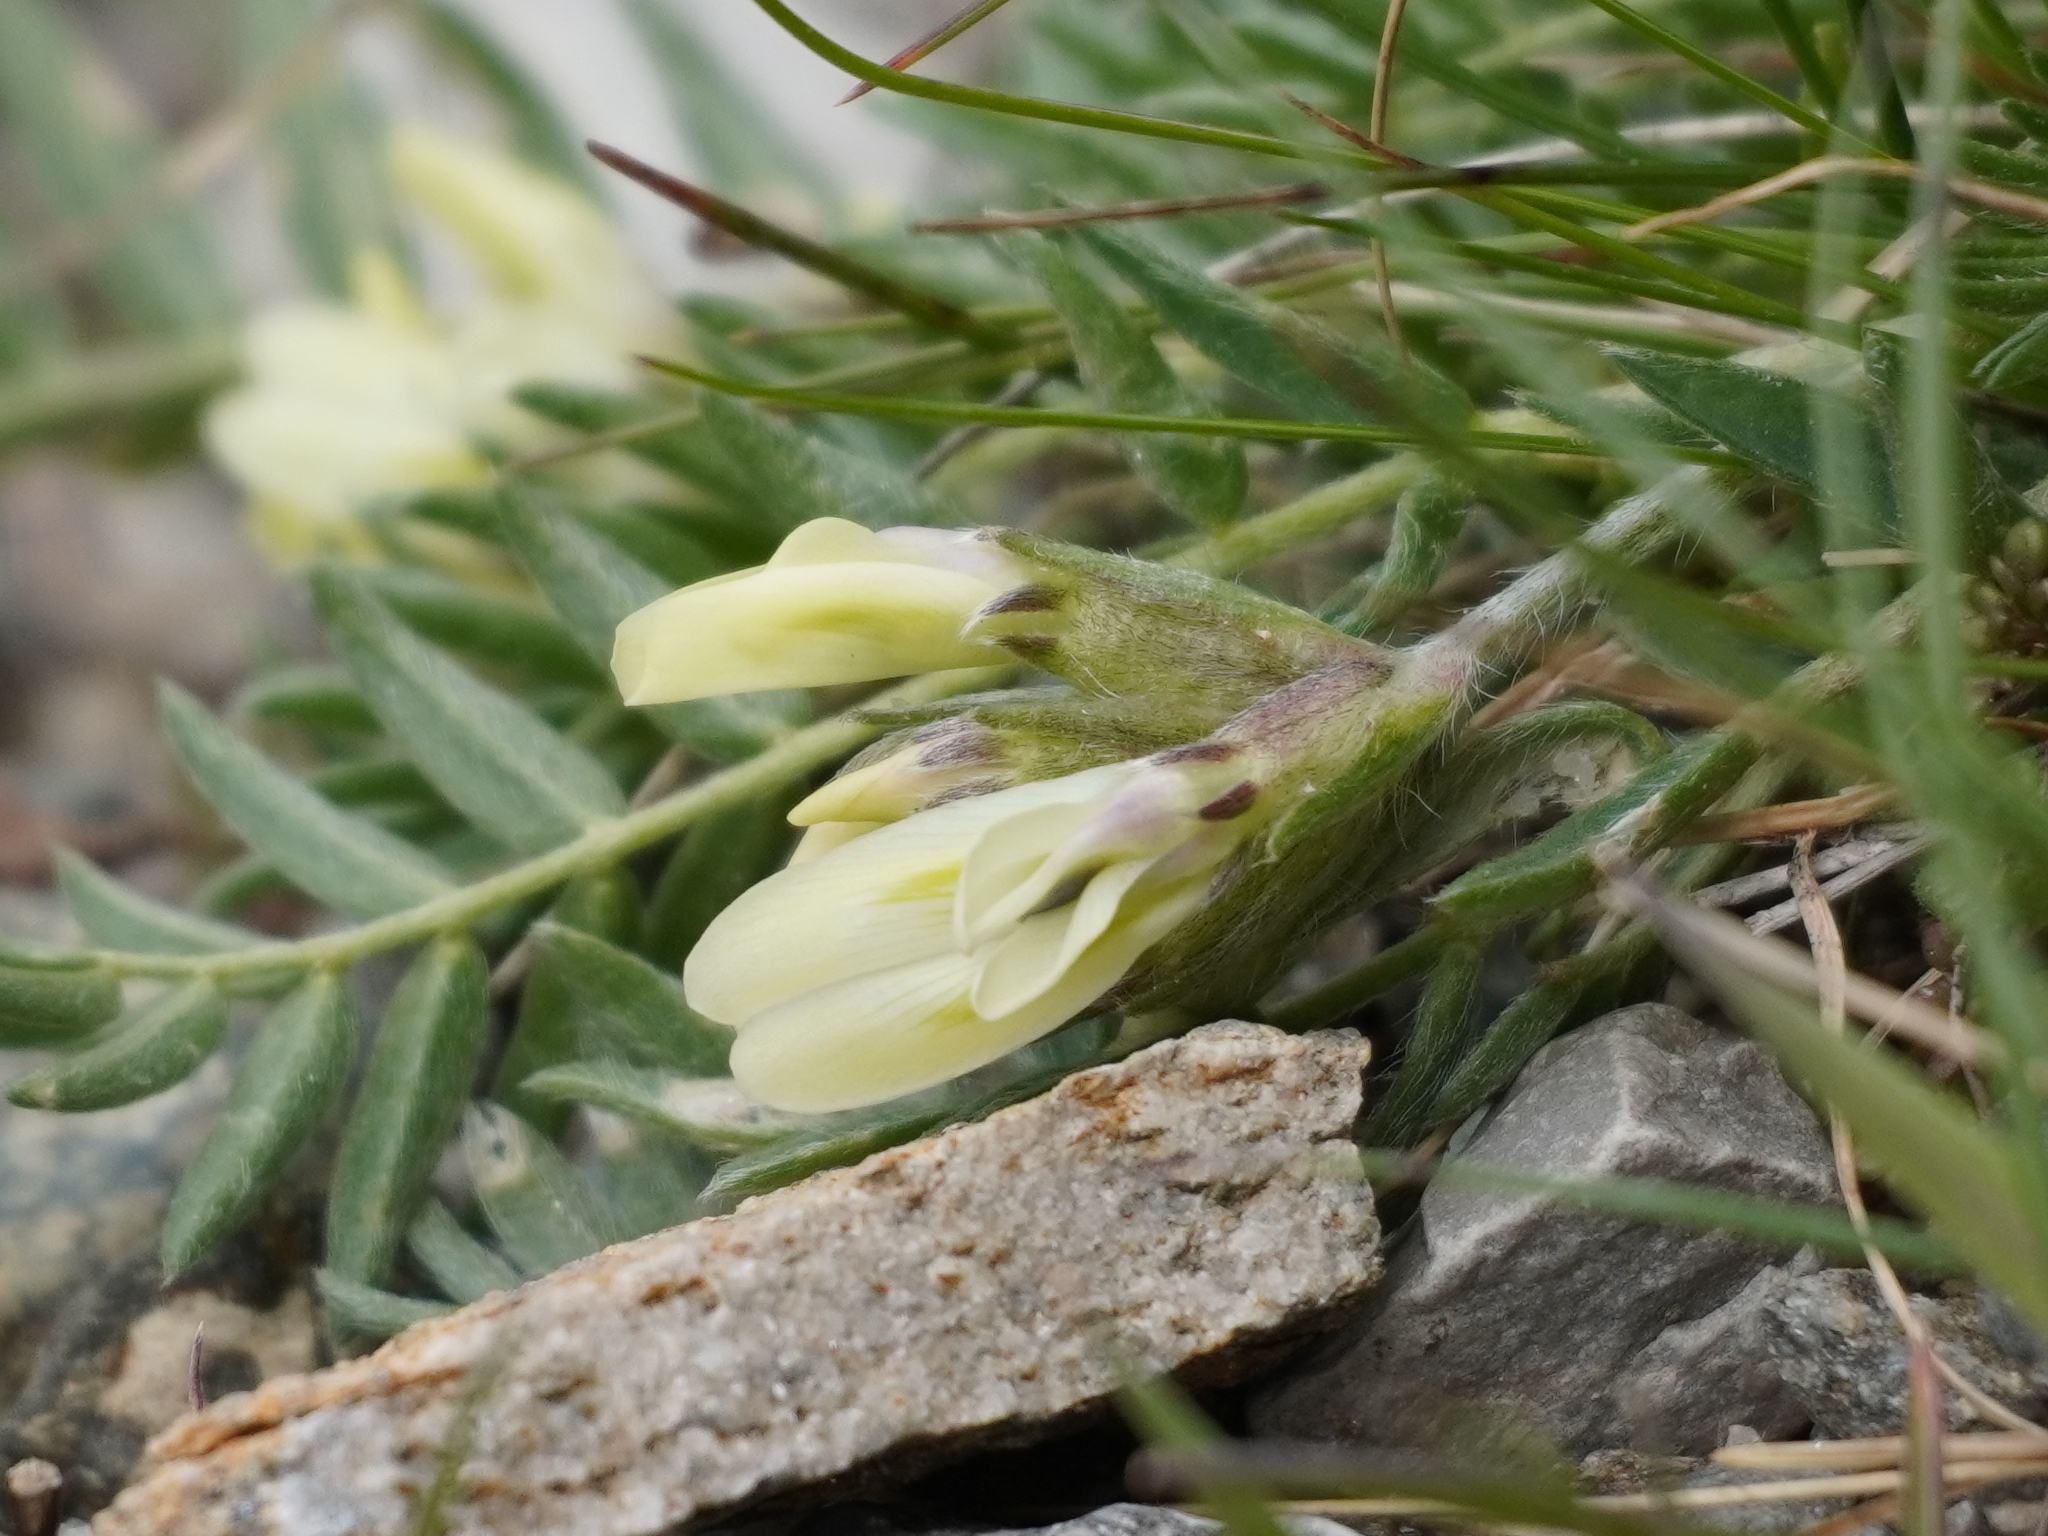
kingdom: Plantae
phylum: Tracheophyta
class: Magnoliopsida
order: Fabales
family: Fabaceae
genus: Oxytropis
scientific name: Oxytropis campestris
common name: Field locoweed
